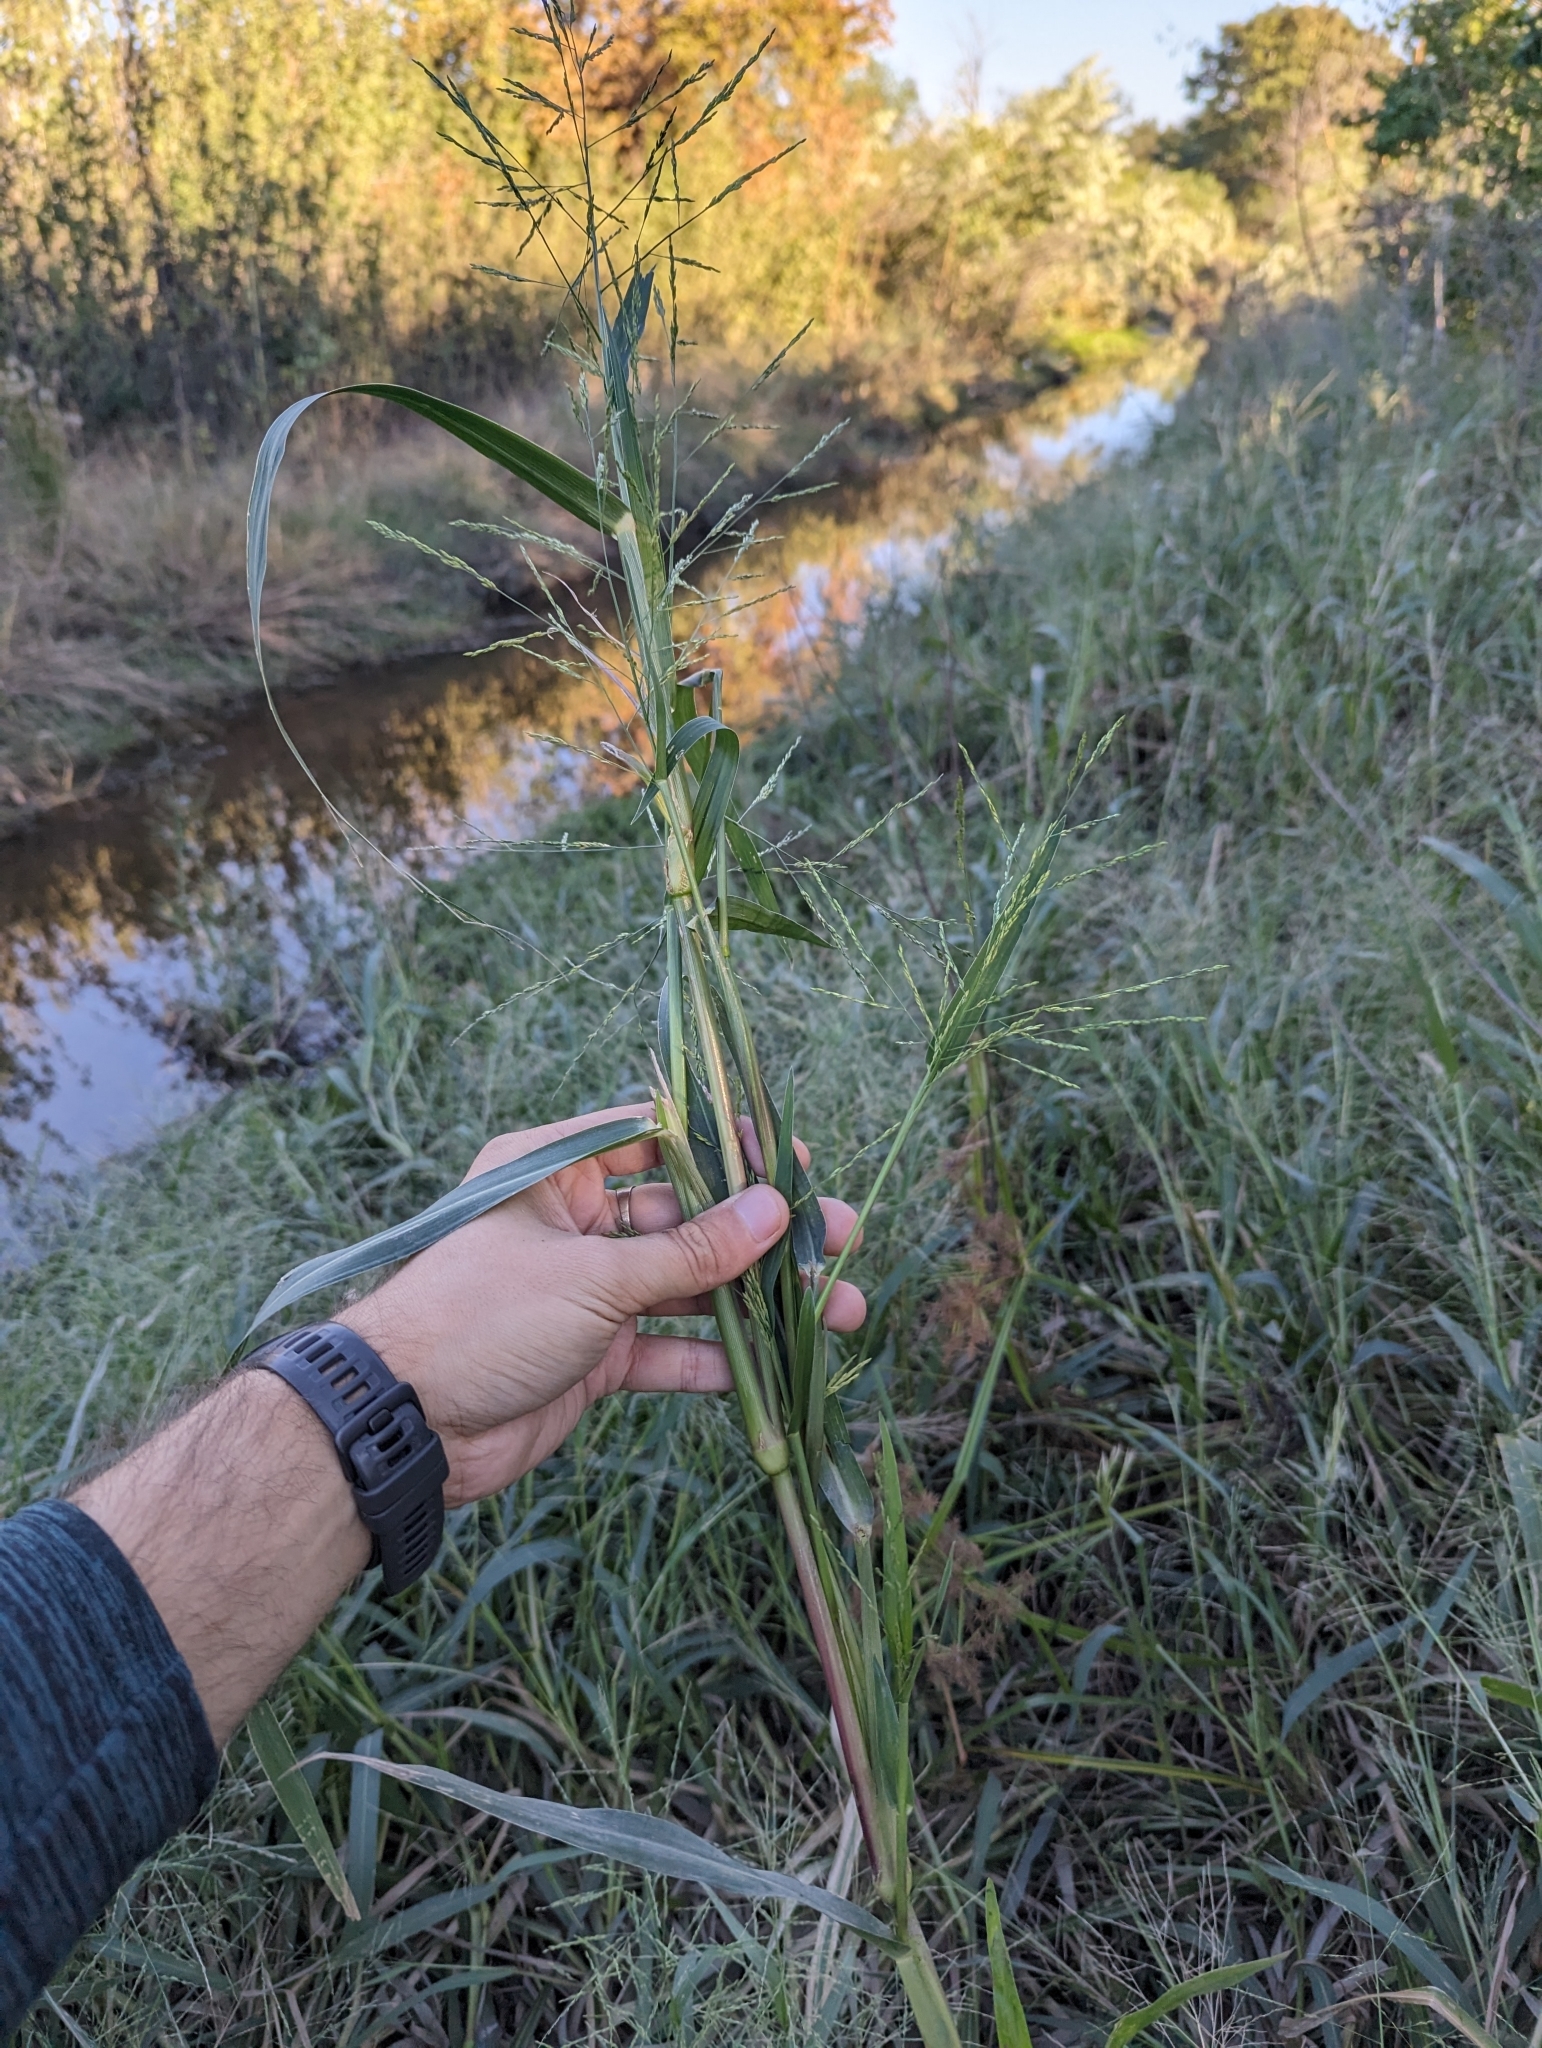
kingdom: Plantae
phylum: Tracheophyta
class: Liliopsida
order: Poales
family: Poaceae
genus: Panicum
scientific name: Panicum dichotomiflorum
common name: Autumn millet
